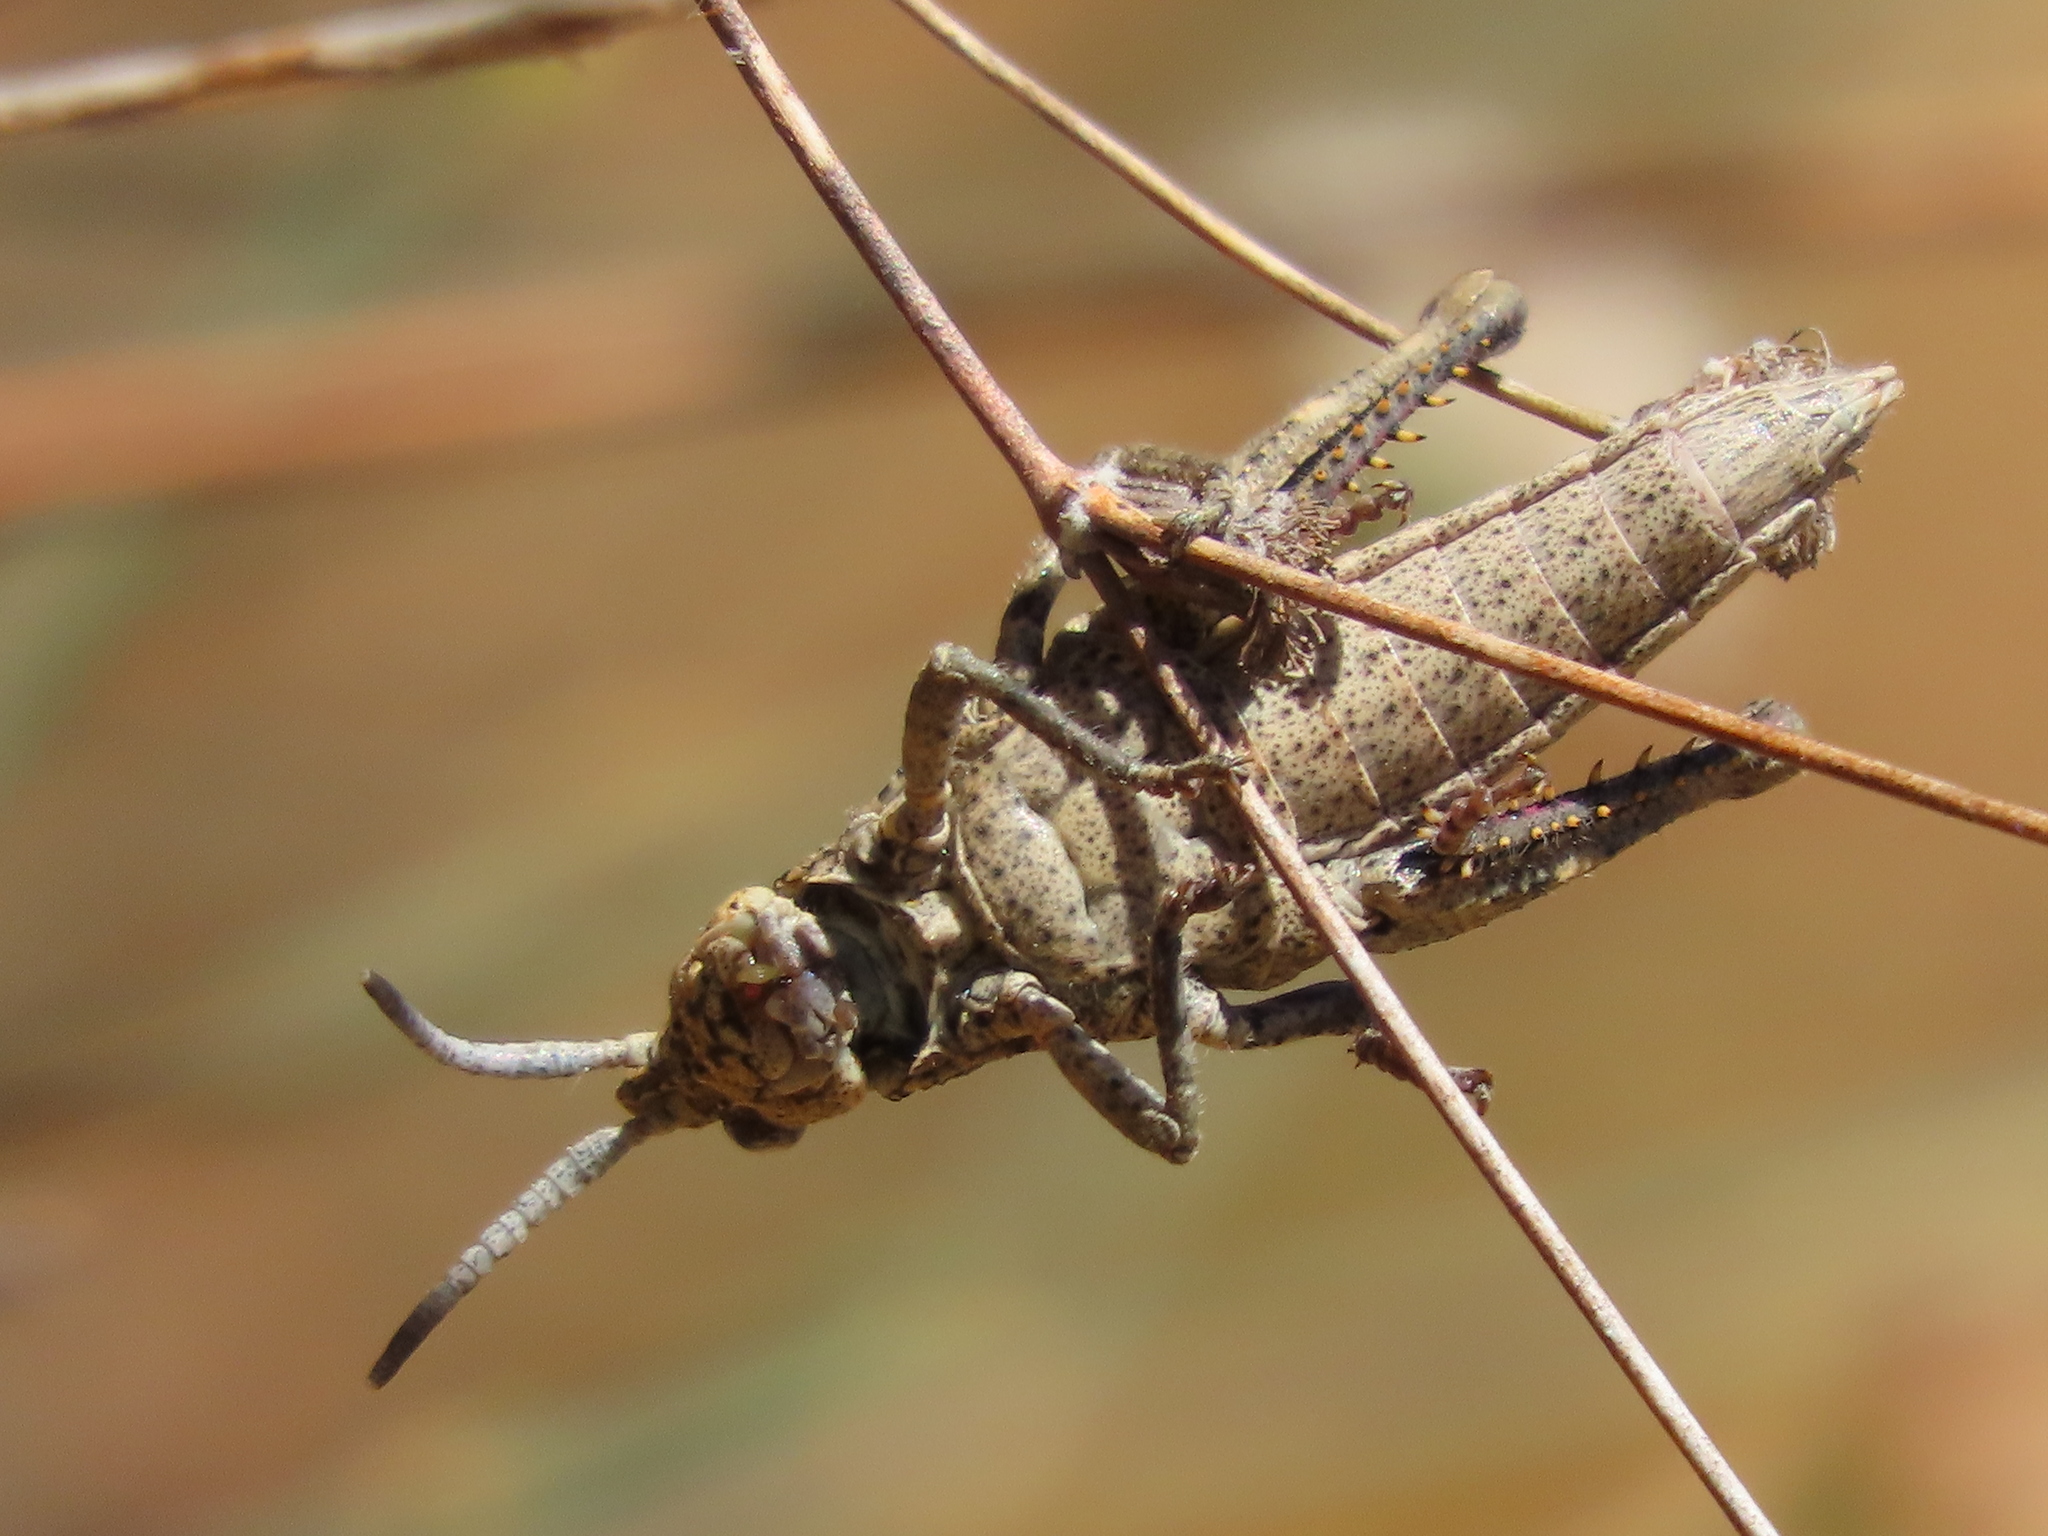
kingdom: Animalia
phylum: Arthropoda
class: Insecta
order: Orthoptera
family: Romaleidae
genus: Dracotettix
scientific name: Dracotettix monstrosus
